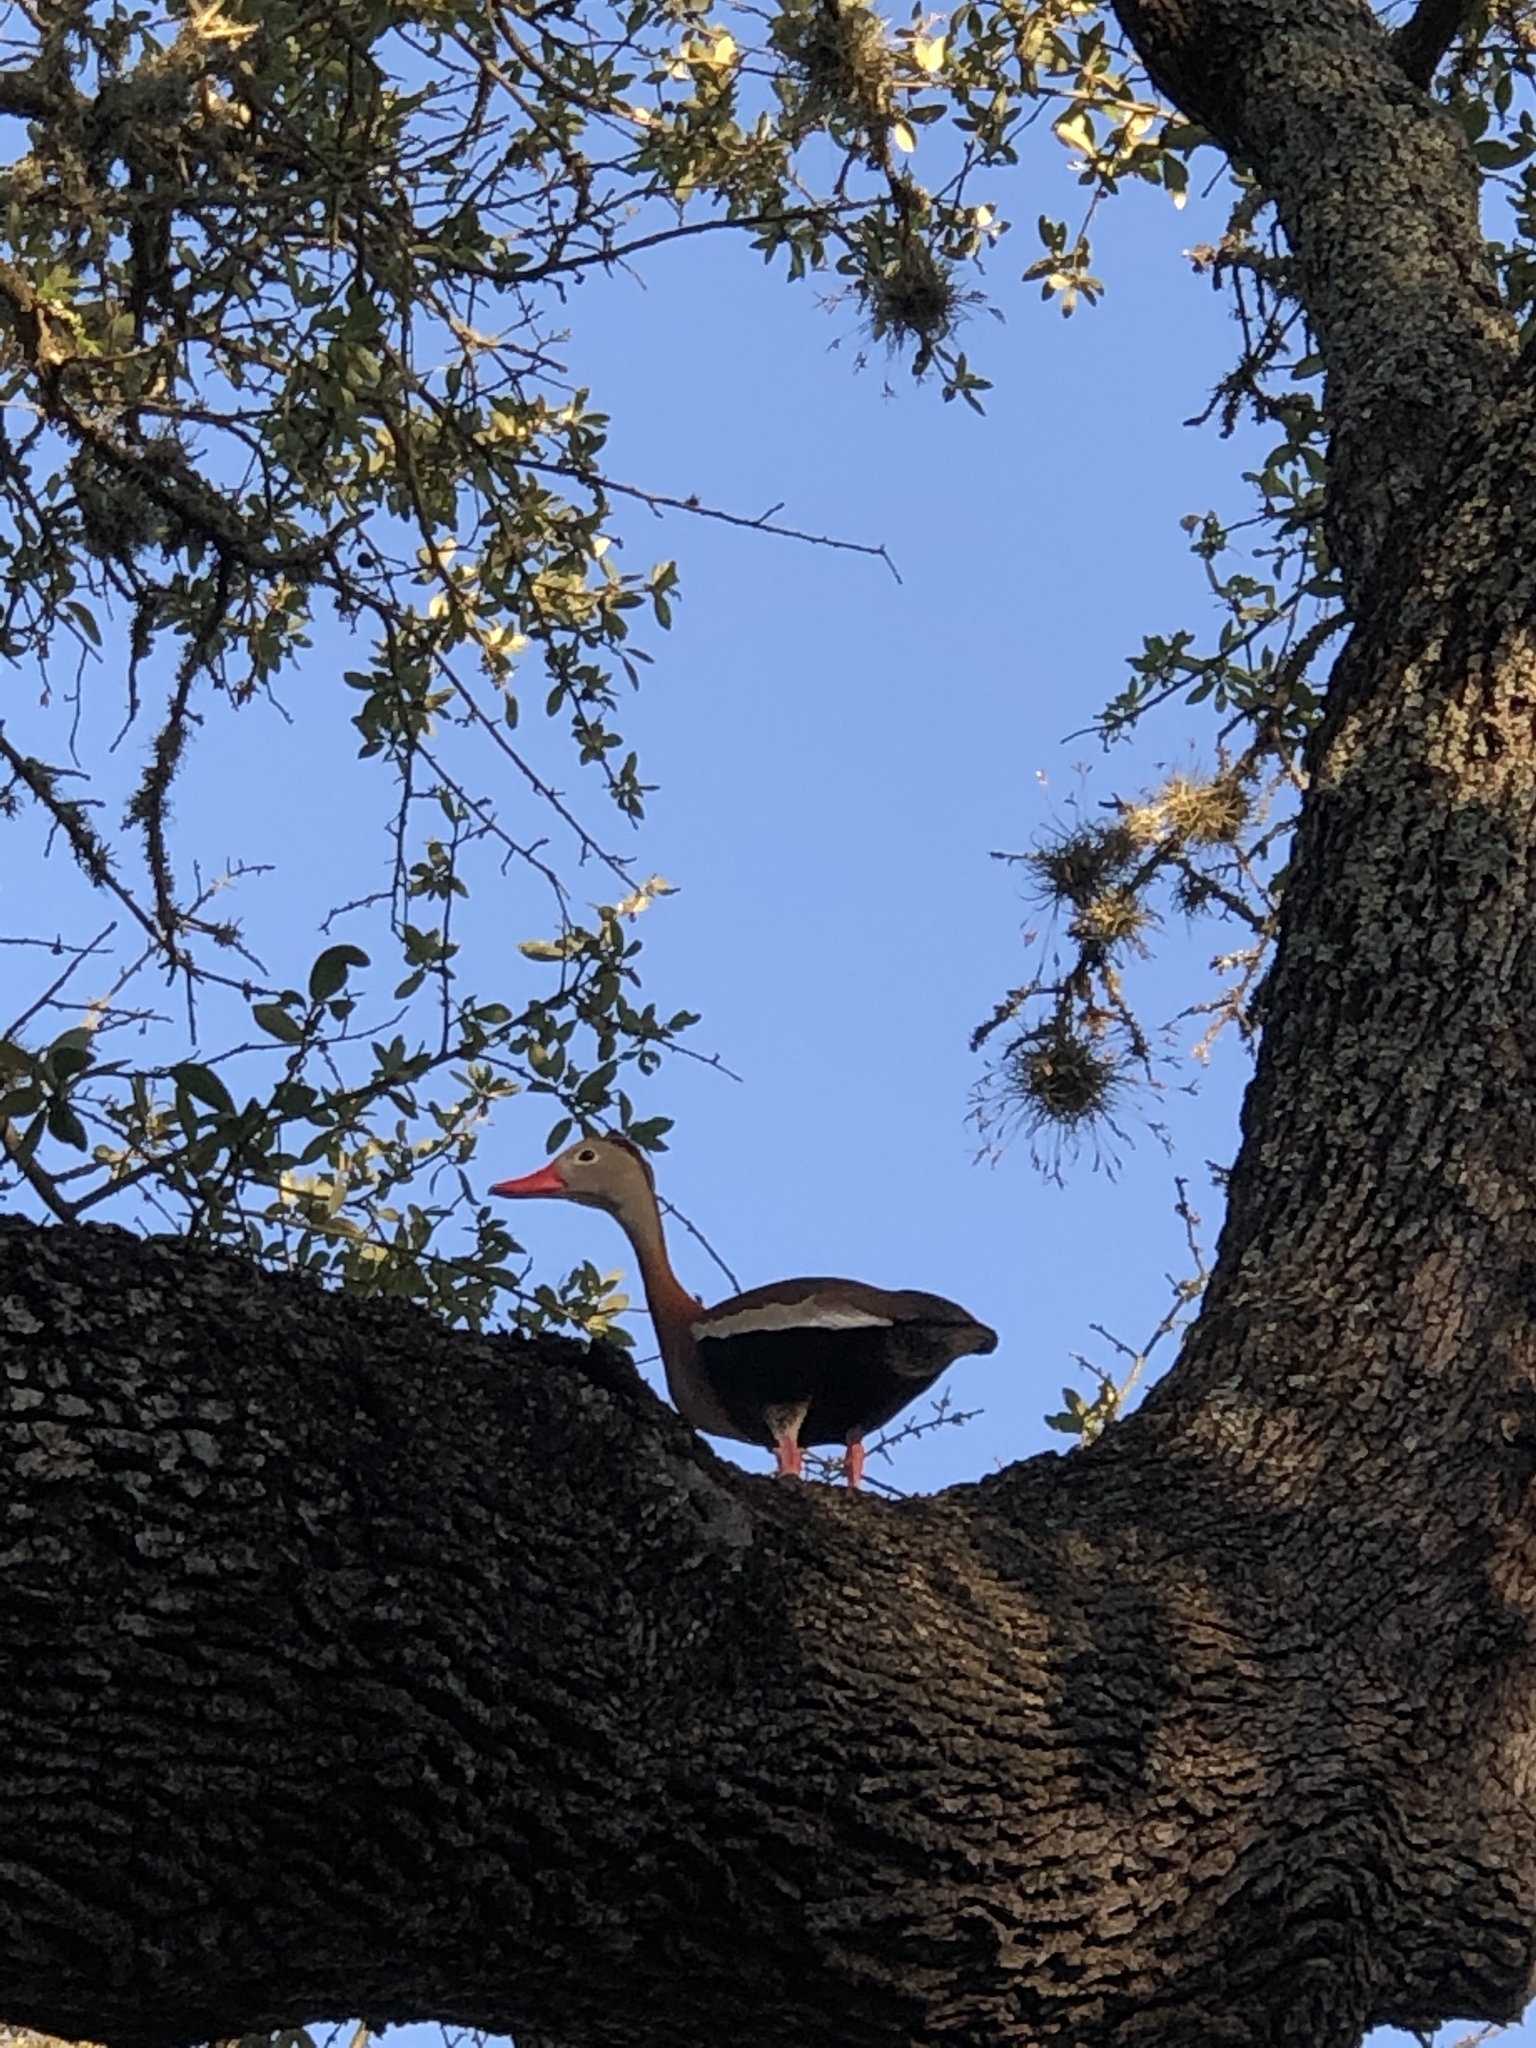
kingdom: Animalia
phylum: Chordata
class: Aves
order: Anseriformes
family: Anatidae
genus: Dendrocygna
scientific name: Dendrocygna autumnalis
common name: Black-bellied whistling duck
